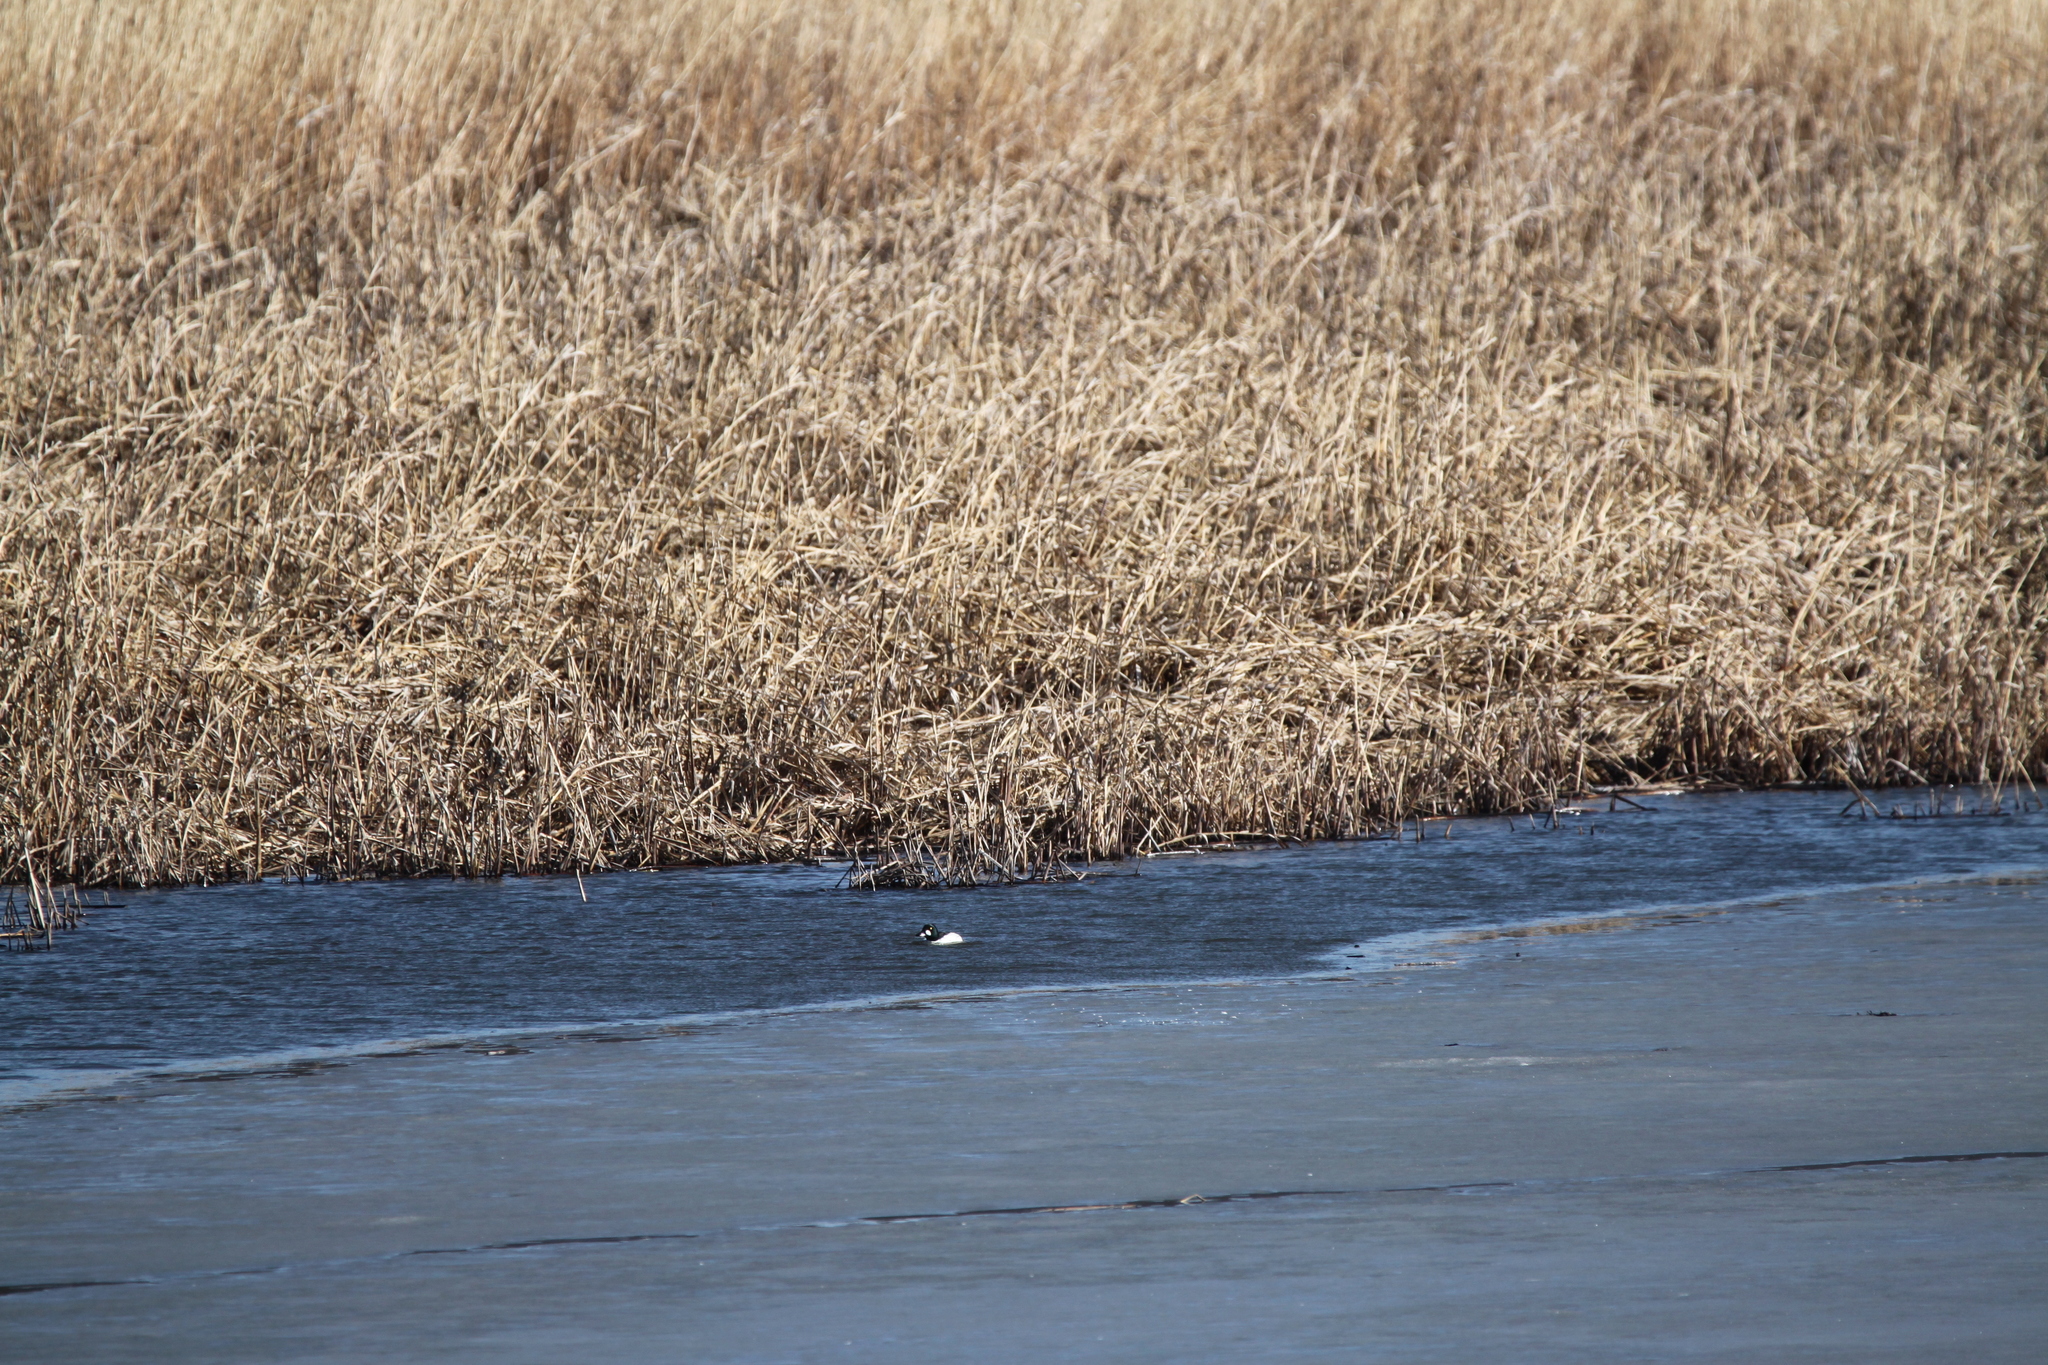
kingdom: Animalia
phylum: Chordata
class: Aves
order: Anseriformes
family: Anatidae
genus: Bucephala
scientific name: Bucephala clangula
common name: Common goldeneye
